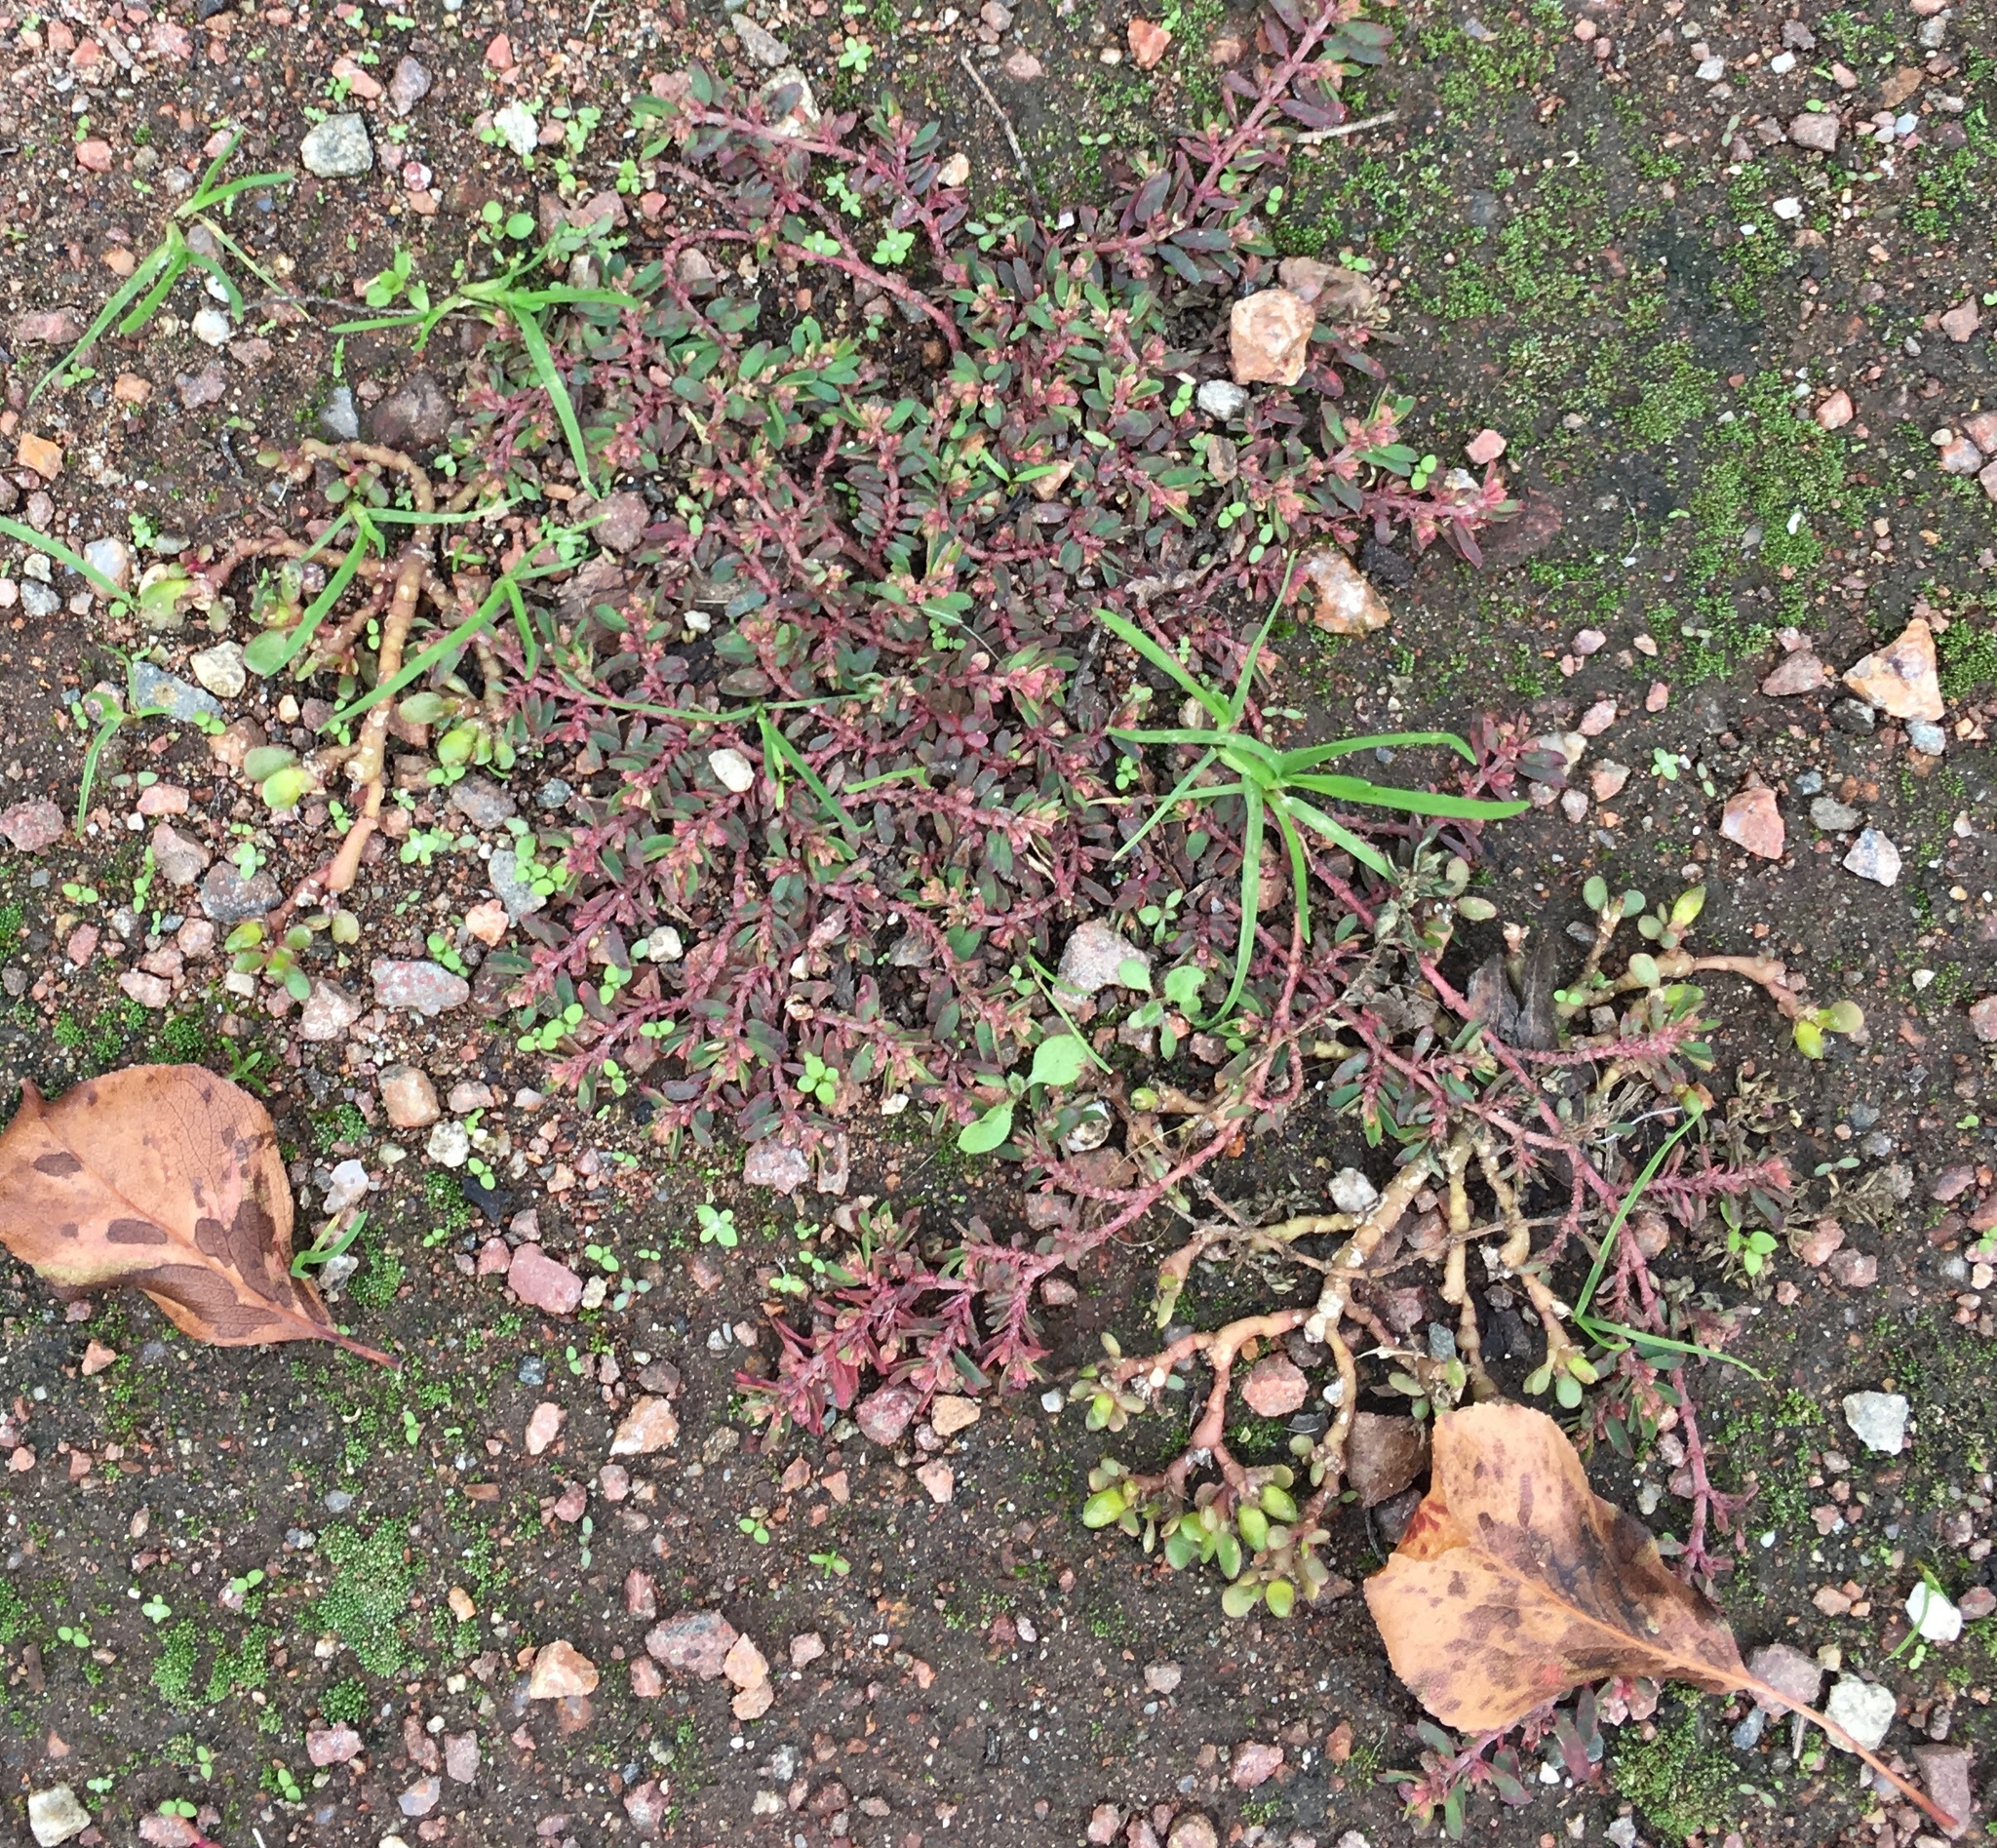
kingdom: Plantae
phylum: Tracheophyta
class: Magnoliopsida
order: Malpighiales
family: Euphorbiaceae
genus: Euphorbia
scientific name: Euphorbia maculata
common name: Spotted spurge
